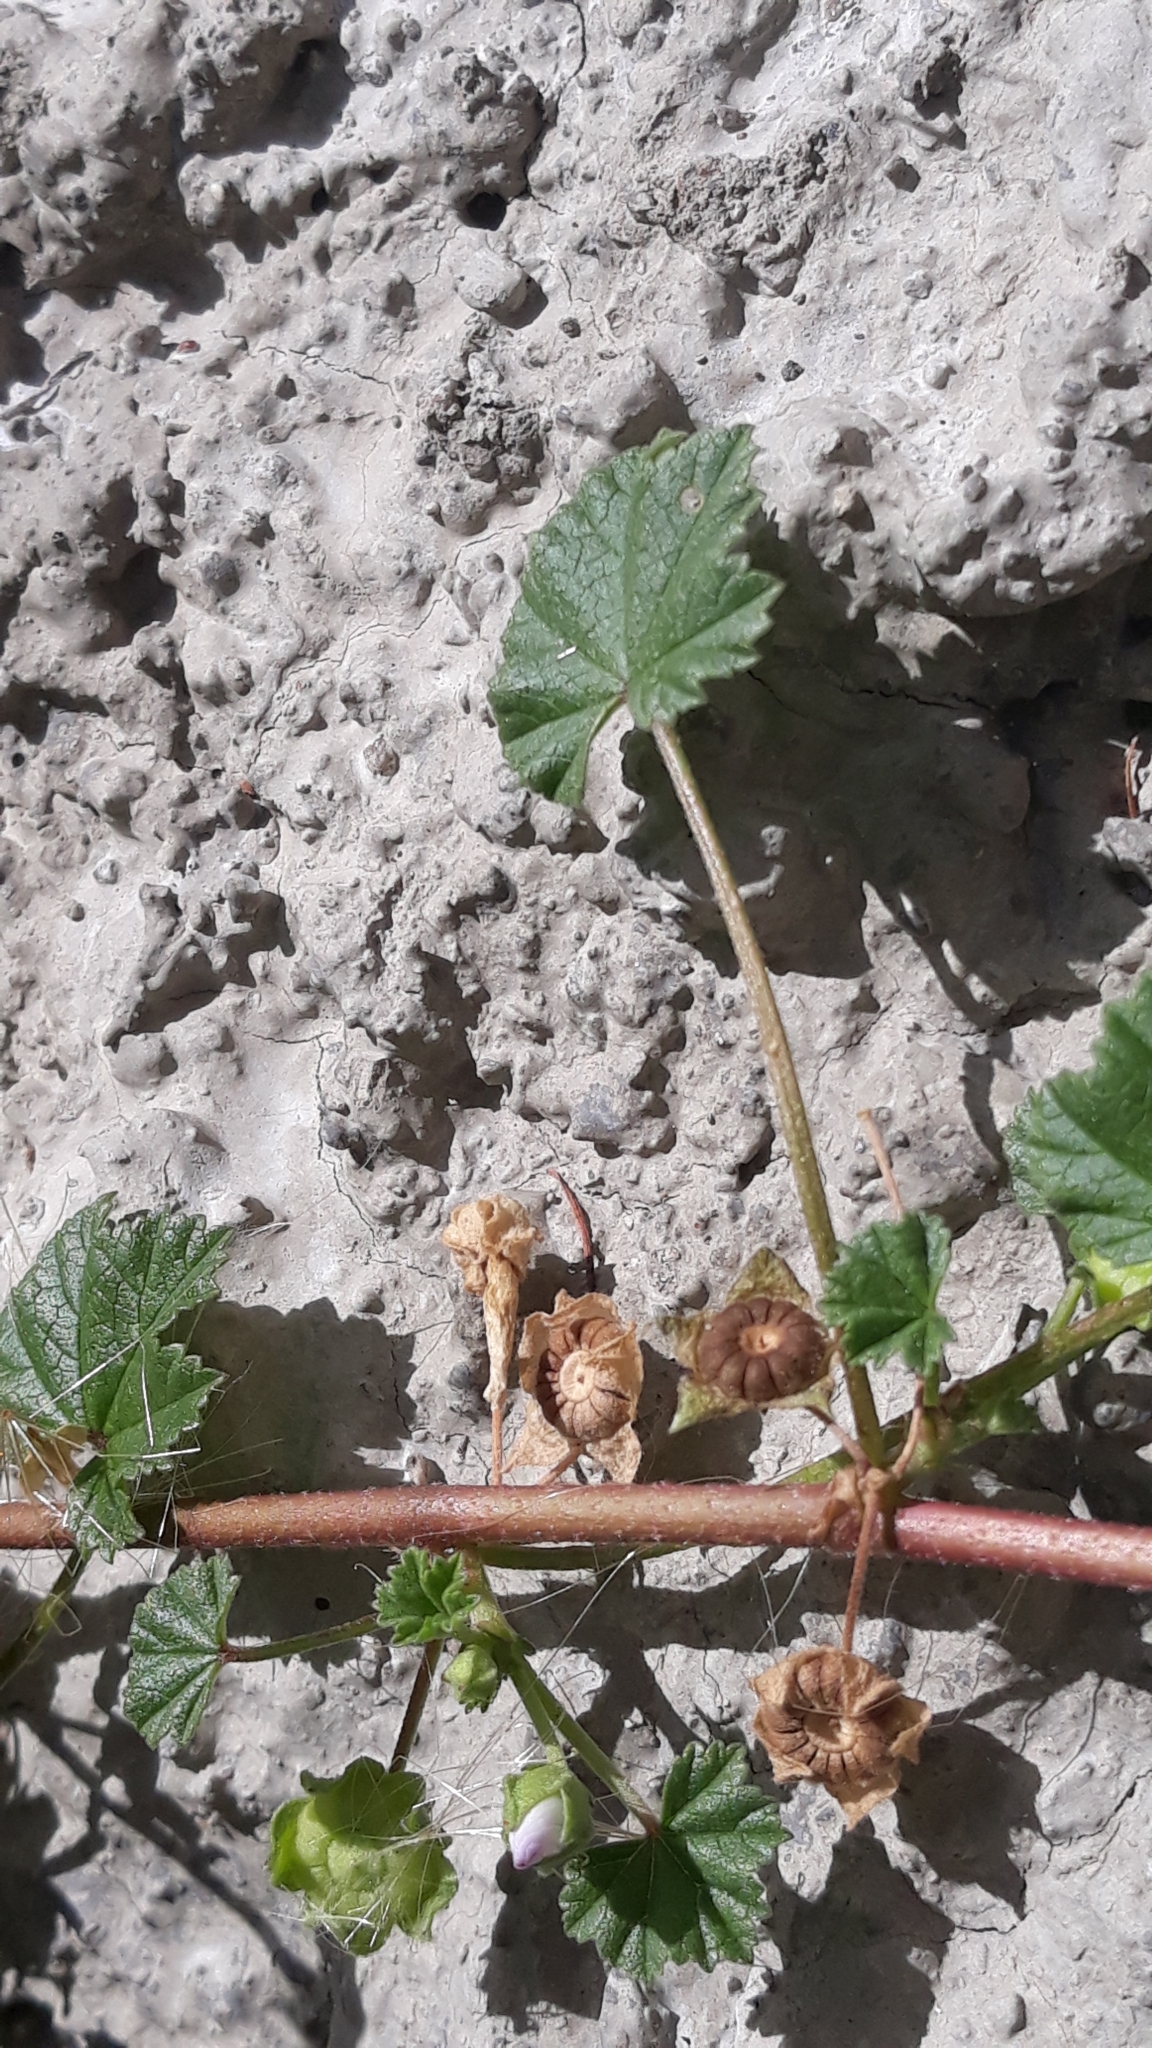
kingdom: Plantae
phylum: Tracheophyta
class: Magnoliopsida
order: Malvales
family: Malvaceae
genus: Malva
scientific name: Malva neglecta
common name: Common mallow
